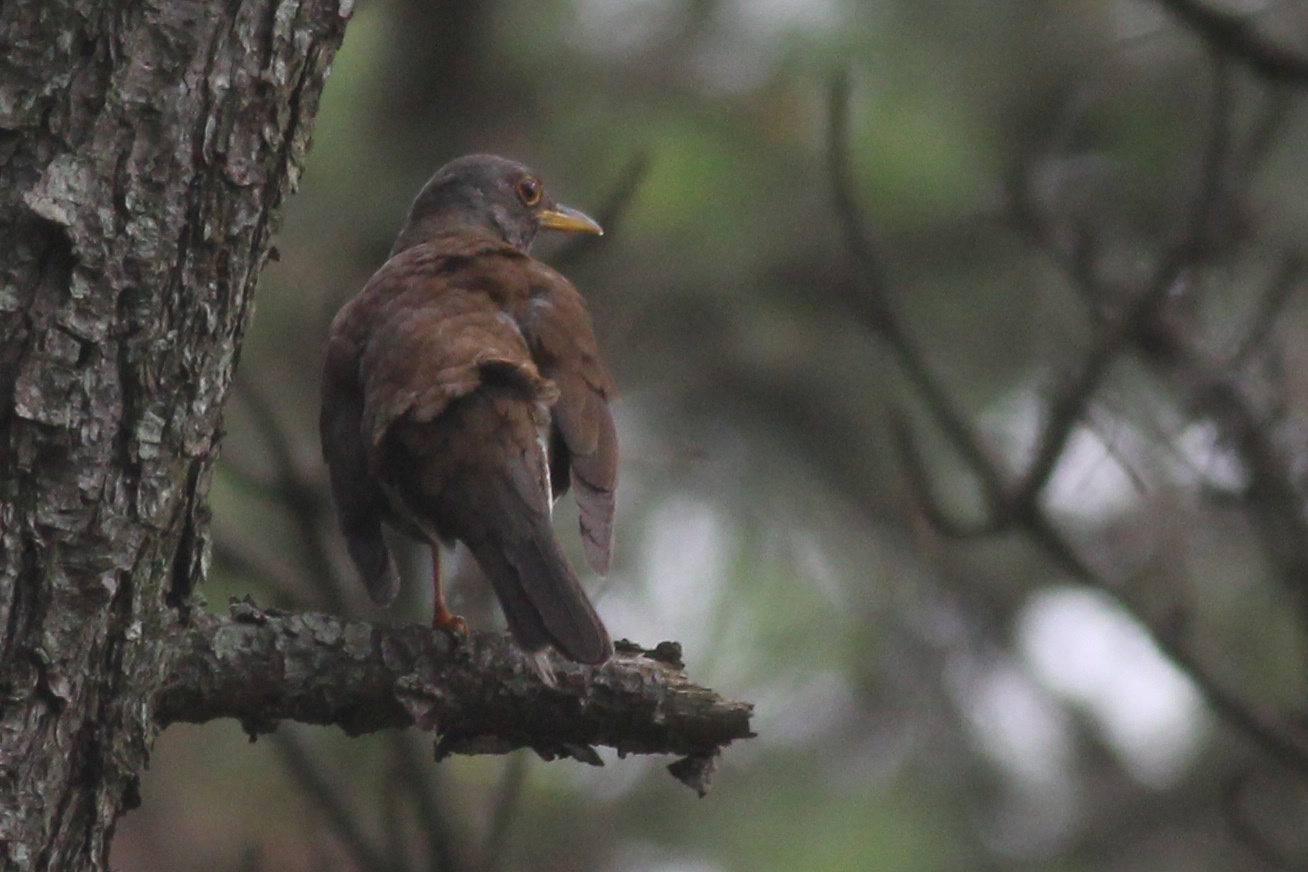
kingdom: Animalia
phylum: Chordata
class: Aves
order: Passeriformes
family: Turdidae
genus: Turdus
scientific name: Turdus pallidus
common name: Pale thrush
